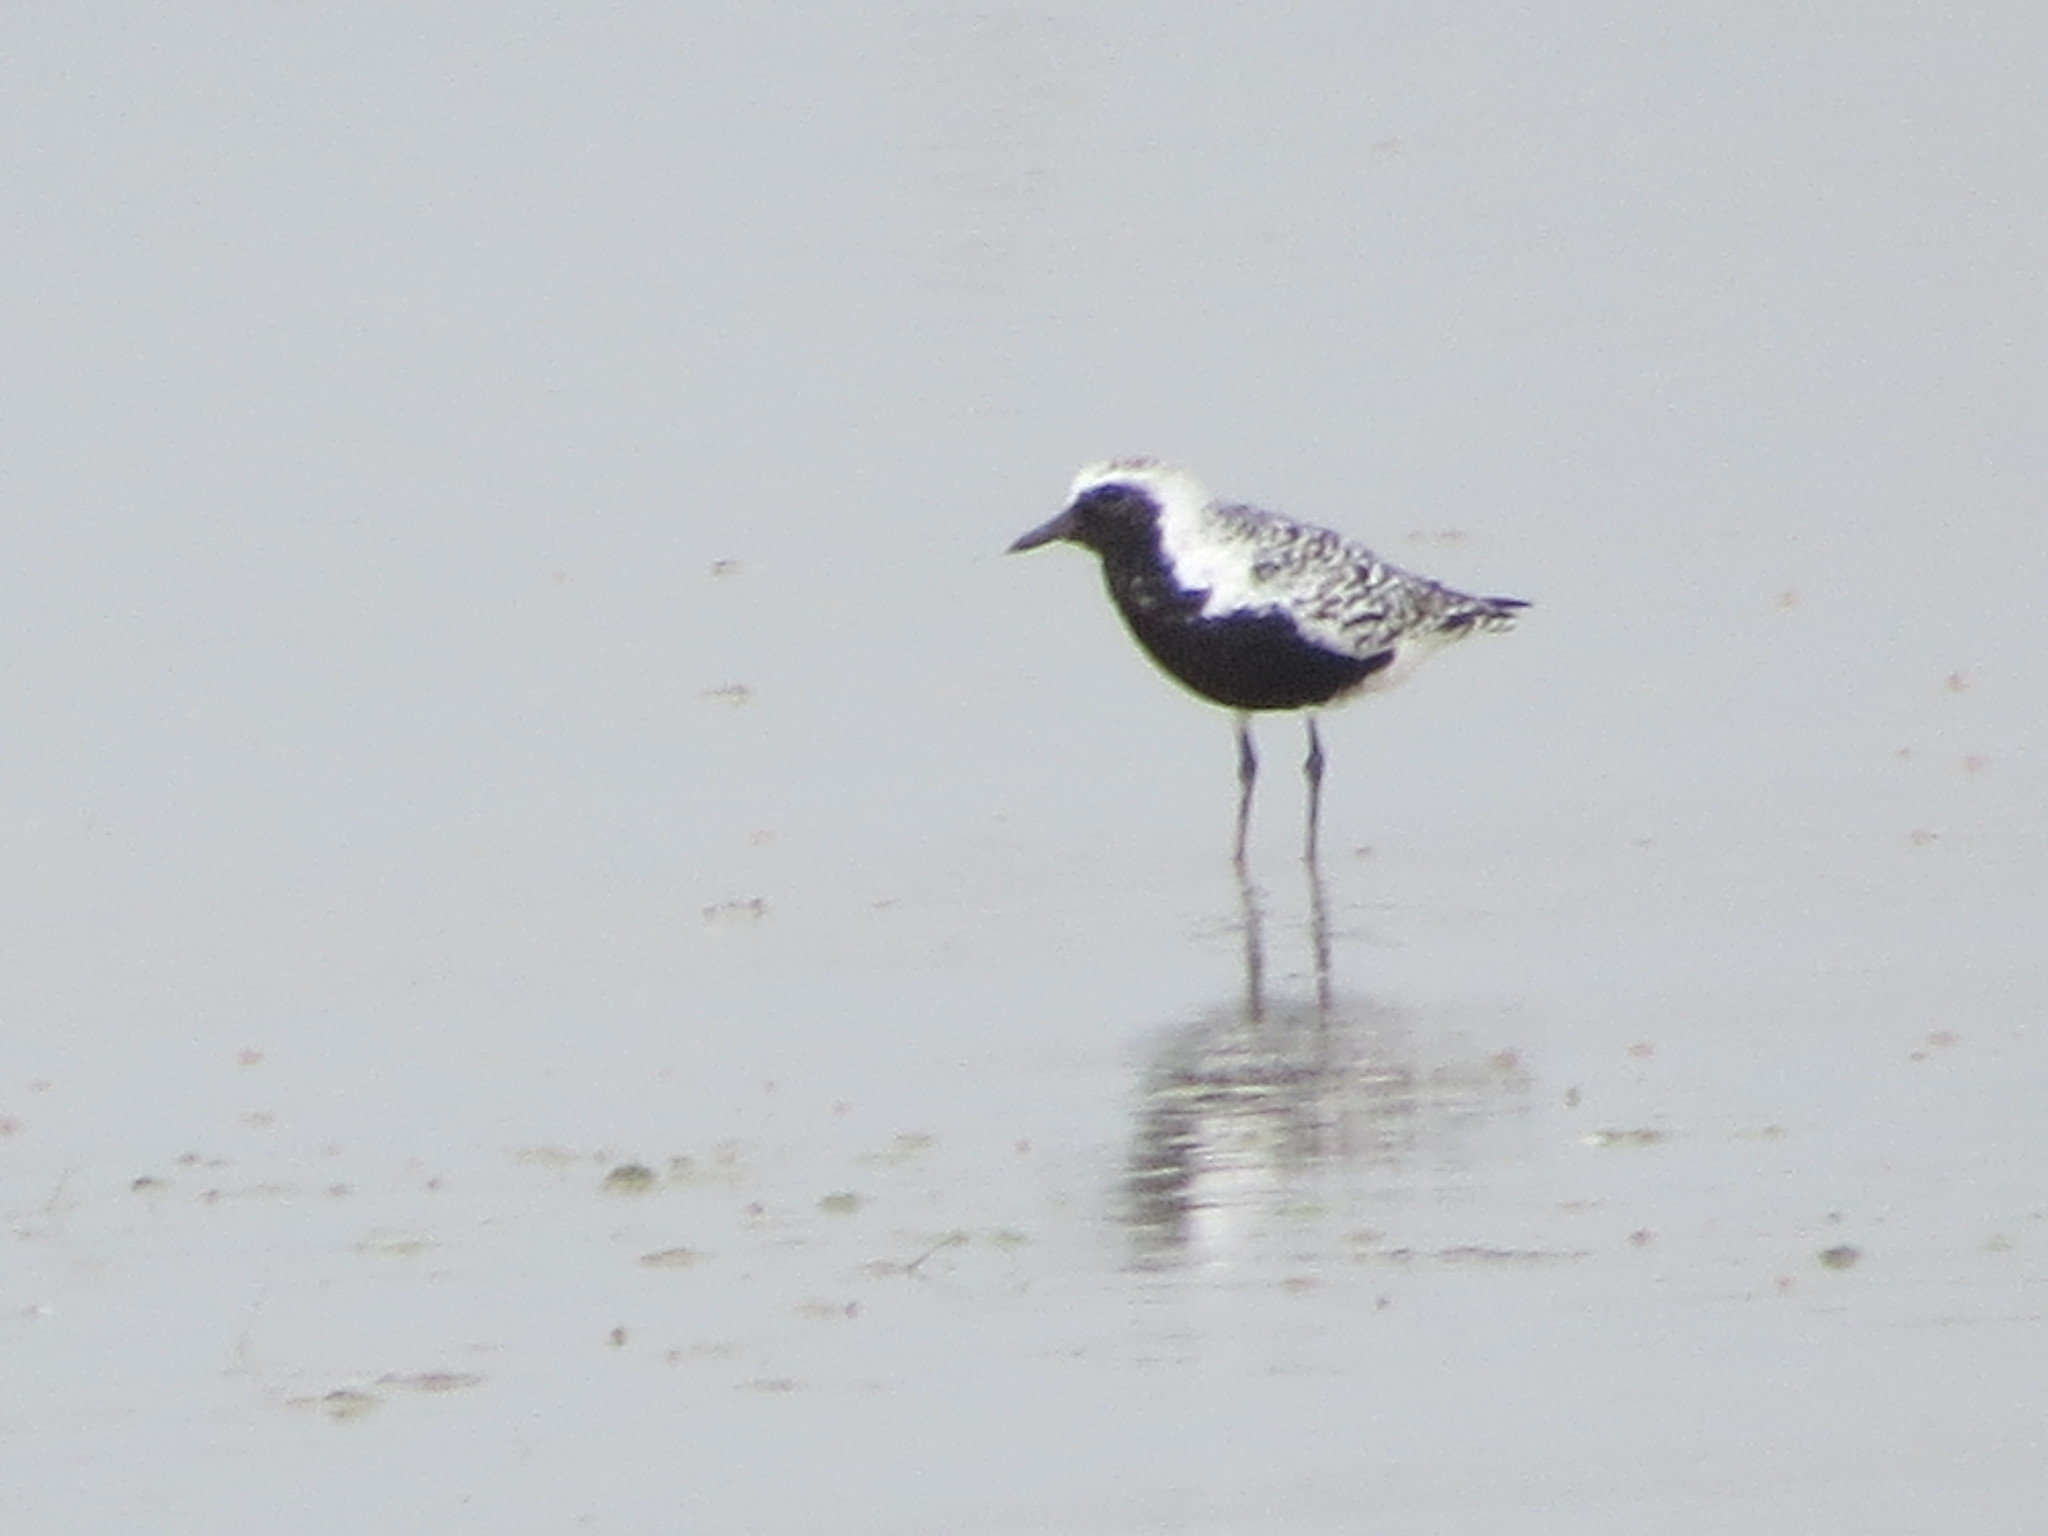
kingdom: Animalia
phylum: Chordata
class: Aves
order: Charadriiformes
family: Charadriidae
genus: Pluvialis
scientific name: Pluvialis squatarola
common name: Grey plover
